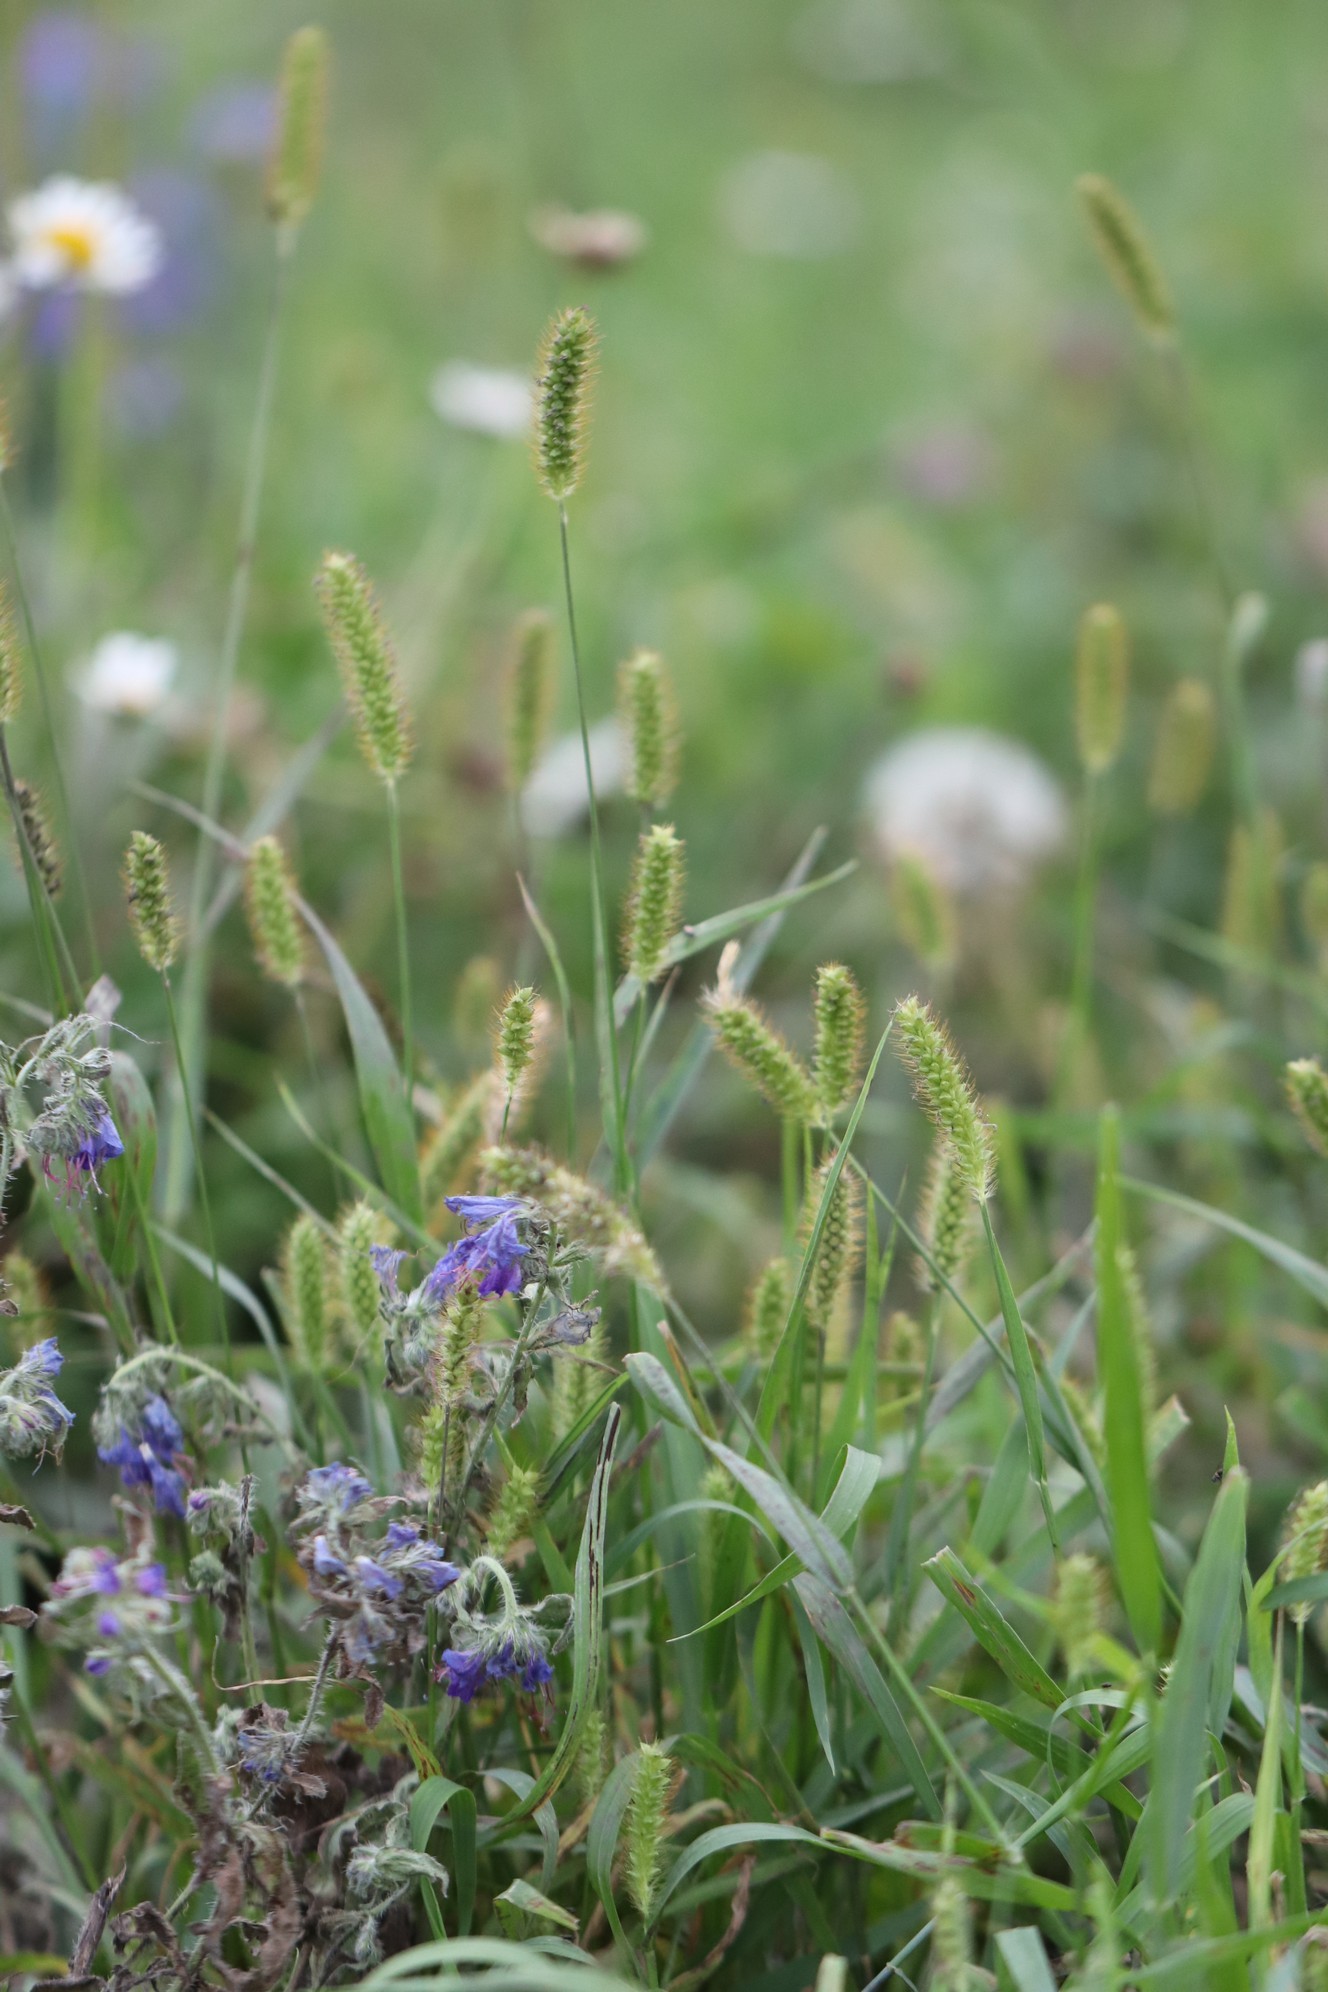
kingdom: Plantae
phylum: Tracheophyta
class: Liliopsida
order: Poales
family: Poaceae
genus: Setaria
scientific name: Setaria pumila
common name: Yellow bristle-grass
